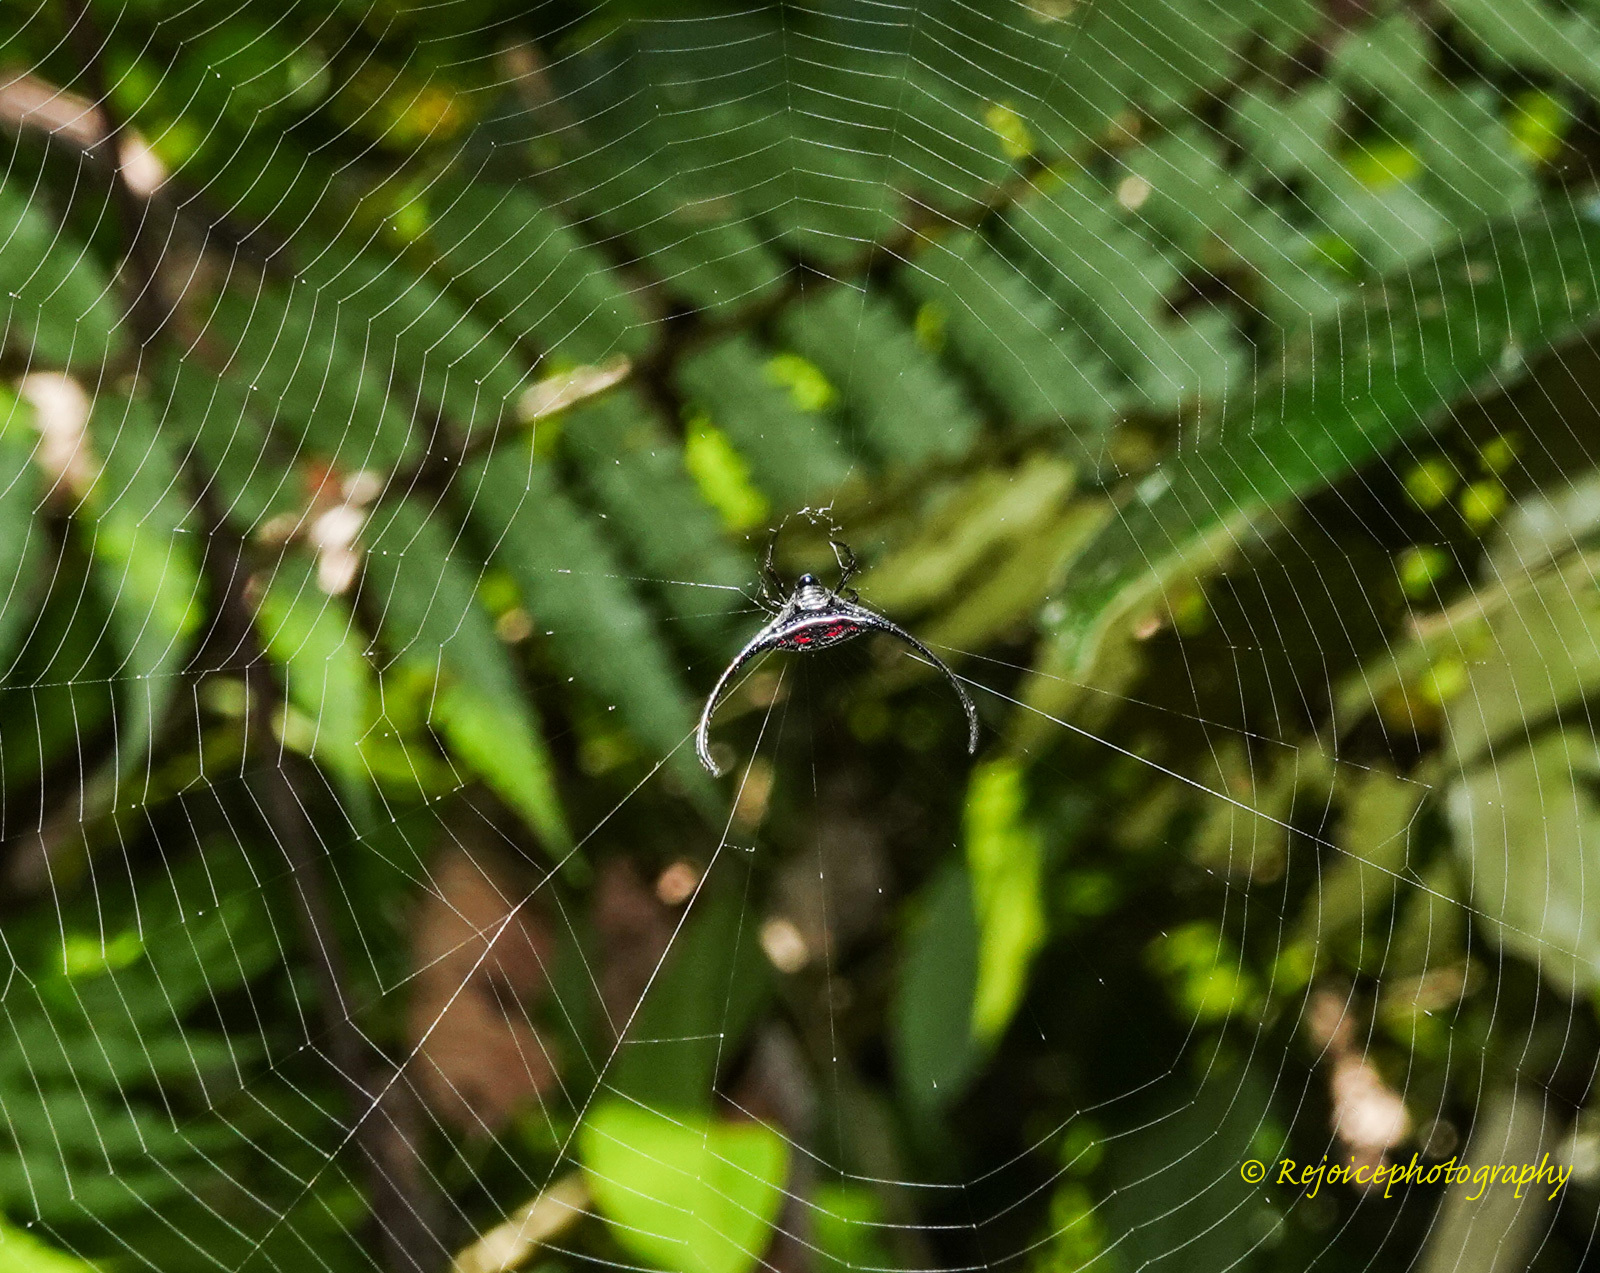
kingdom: Animalia
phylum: Arthropoda
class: Arachnida
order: Araneae
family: Araneidae
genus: Macracantha
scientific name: Macracantha arcuata
